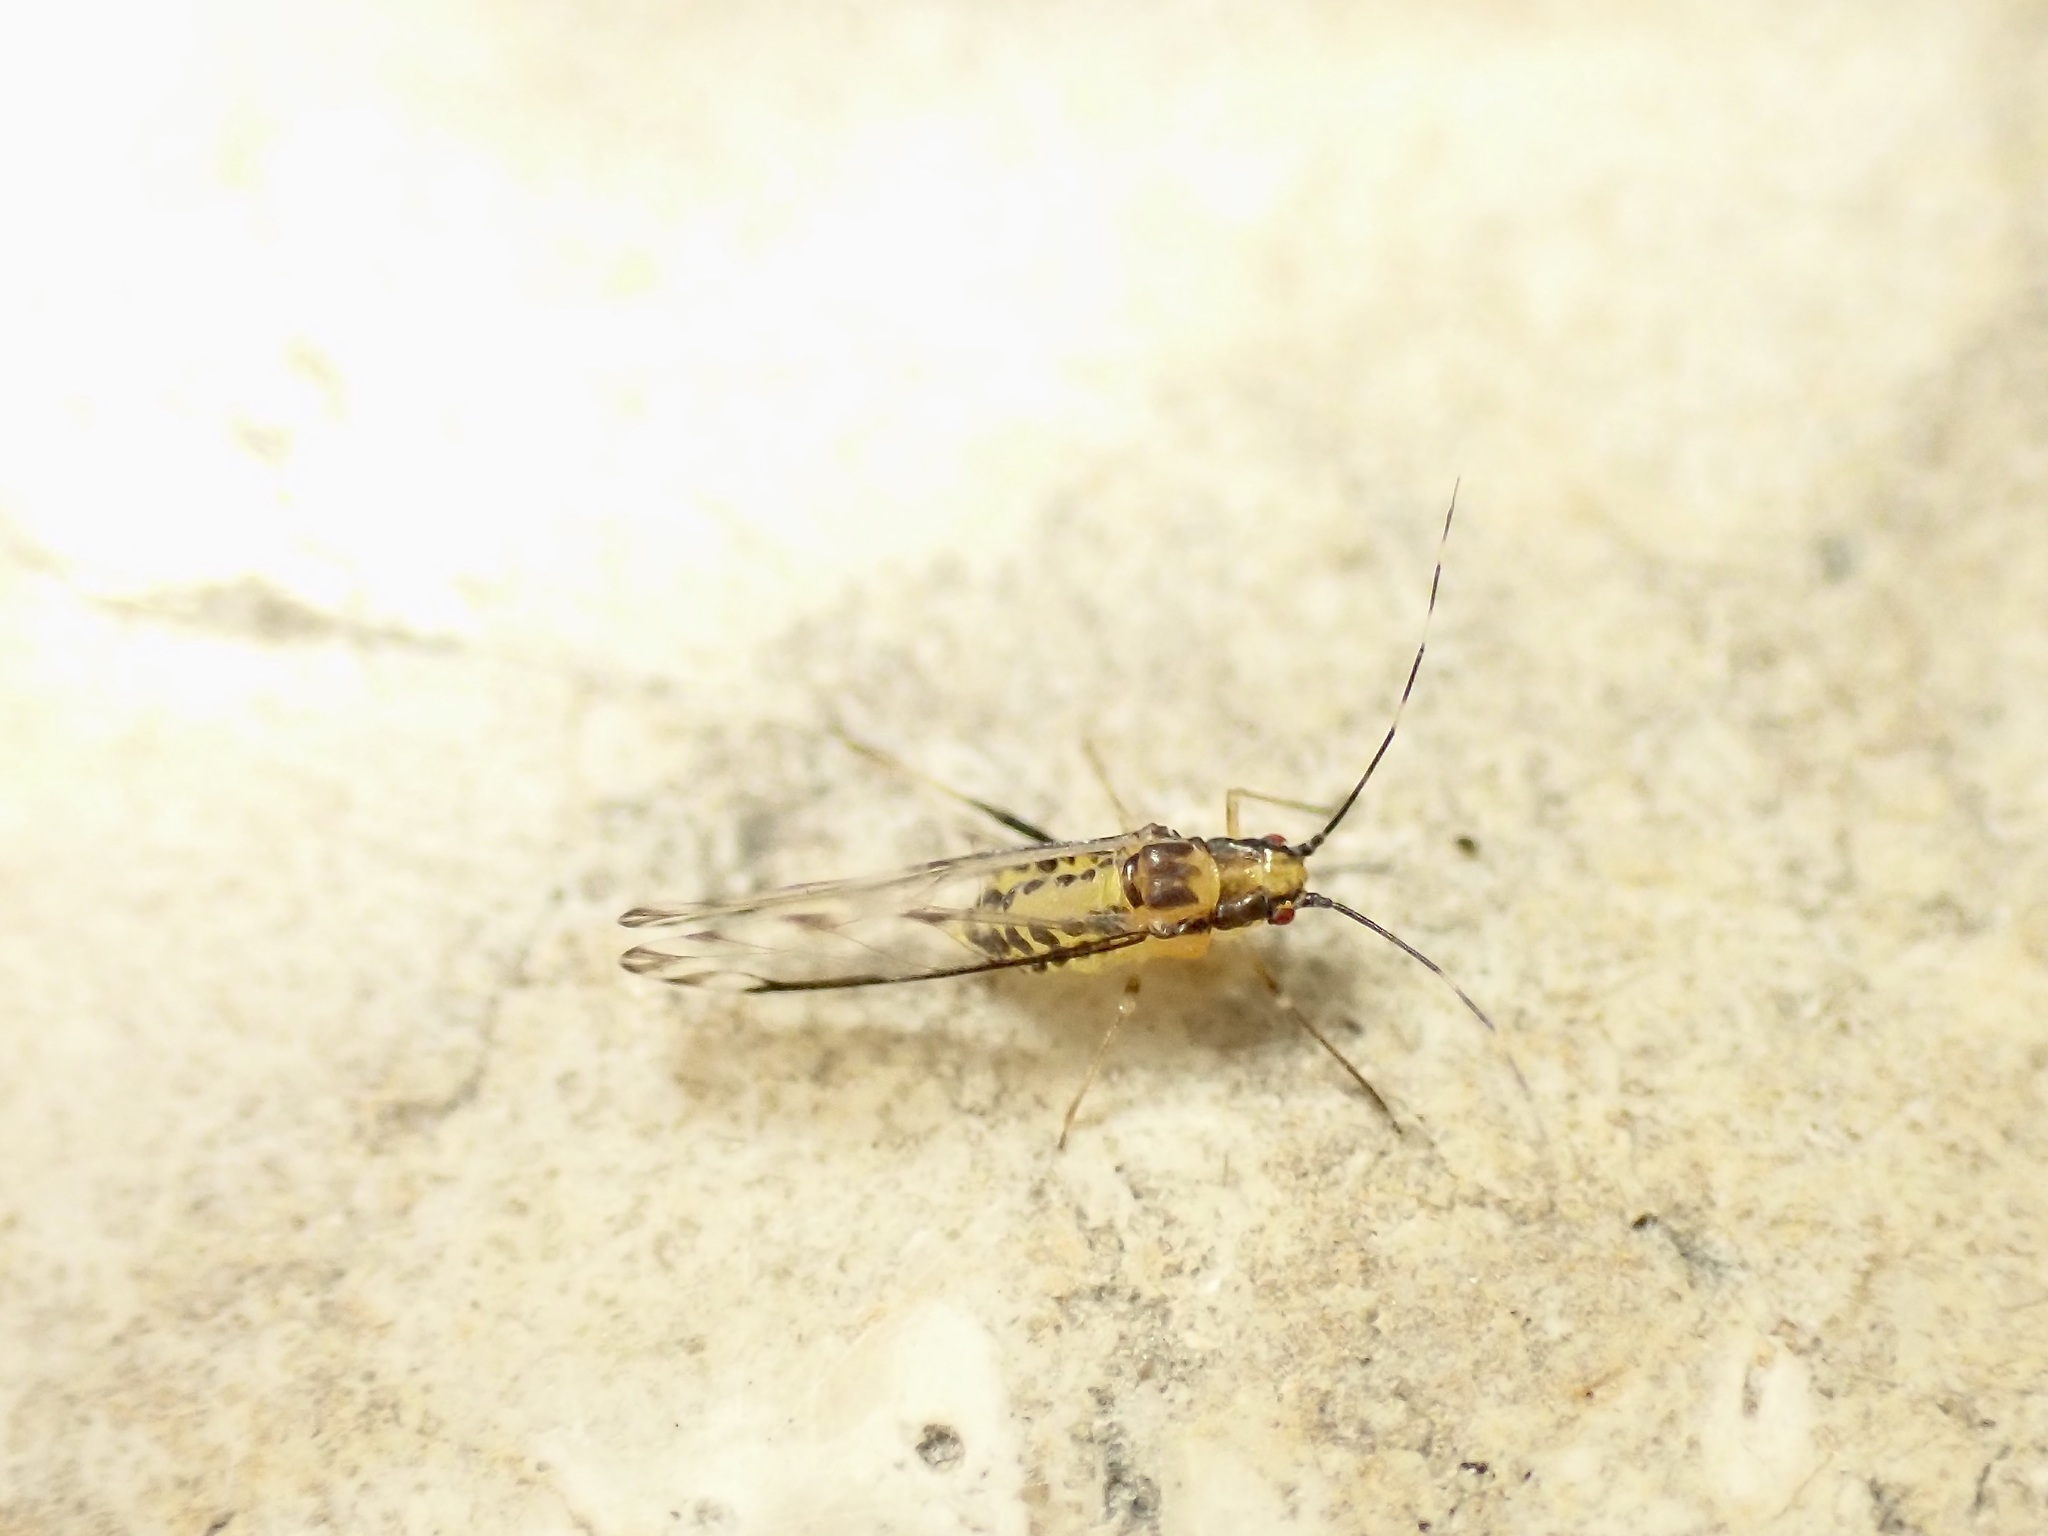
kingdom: Animalia
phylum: Arthropoda
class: Insecta
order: Hemiptera
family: Aphididae
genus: Eucallipterus
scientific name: Eucallipterus tiliae
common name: Aphid
